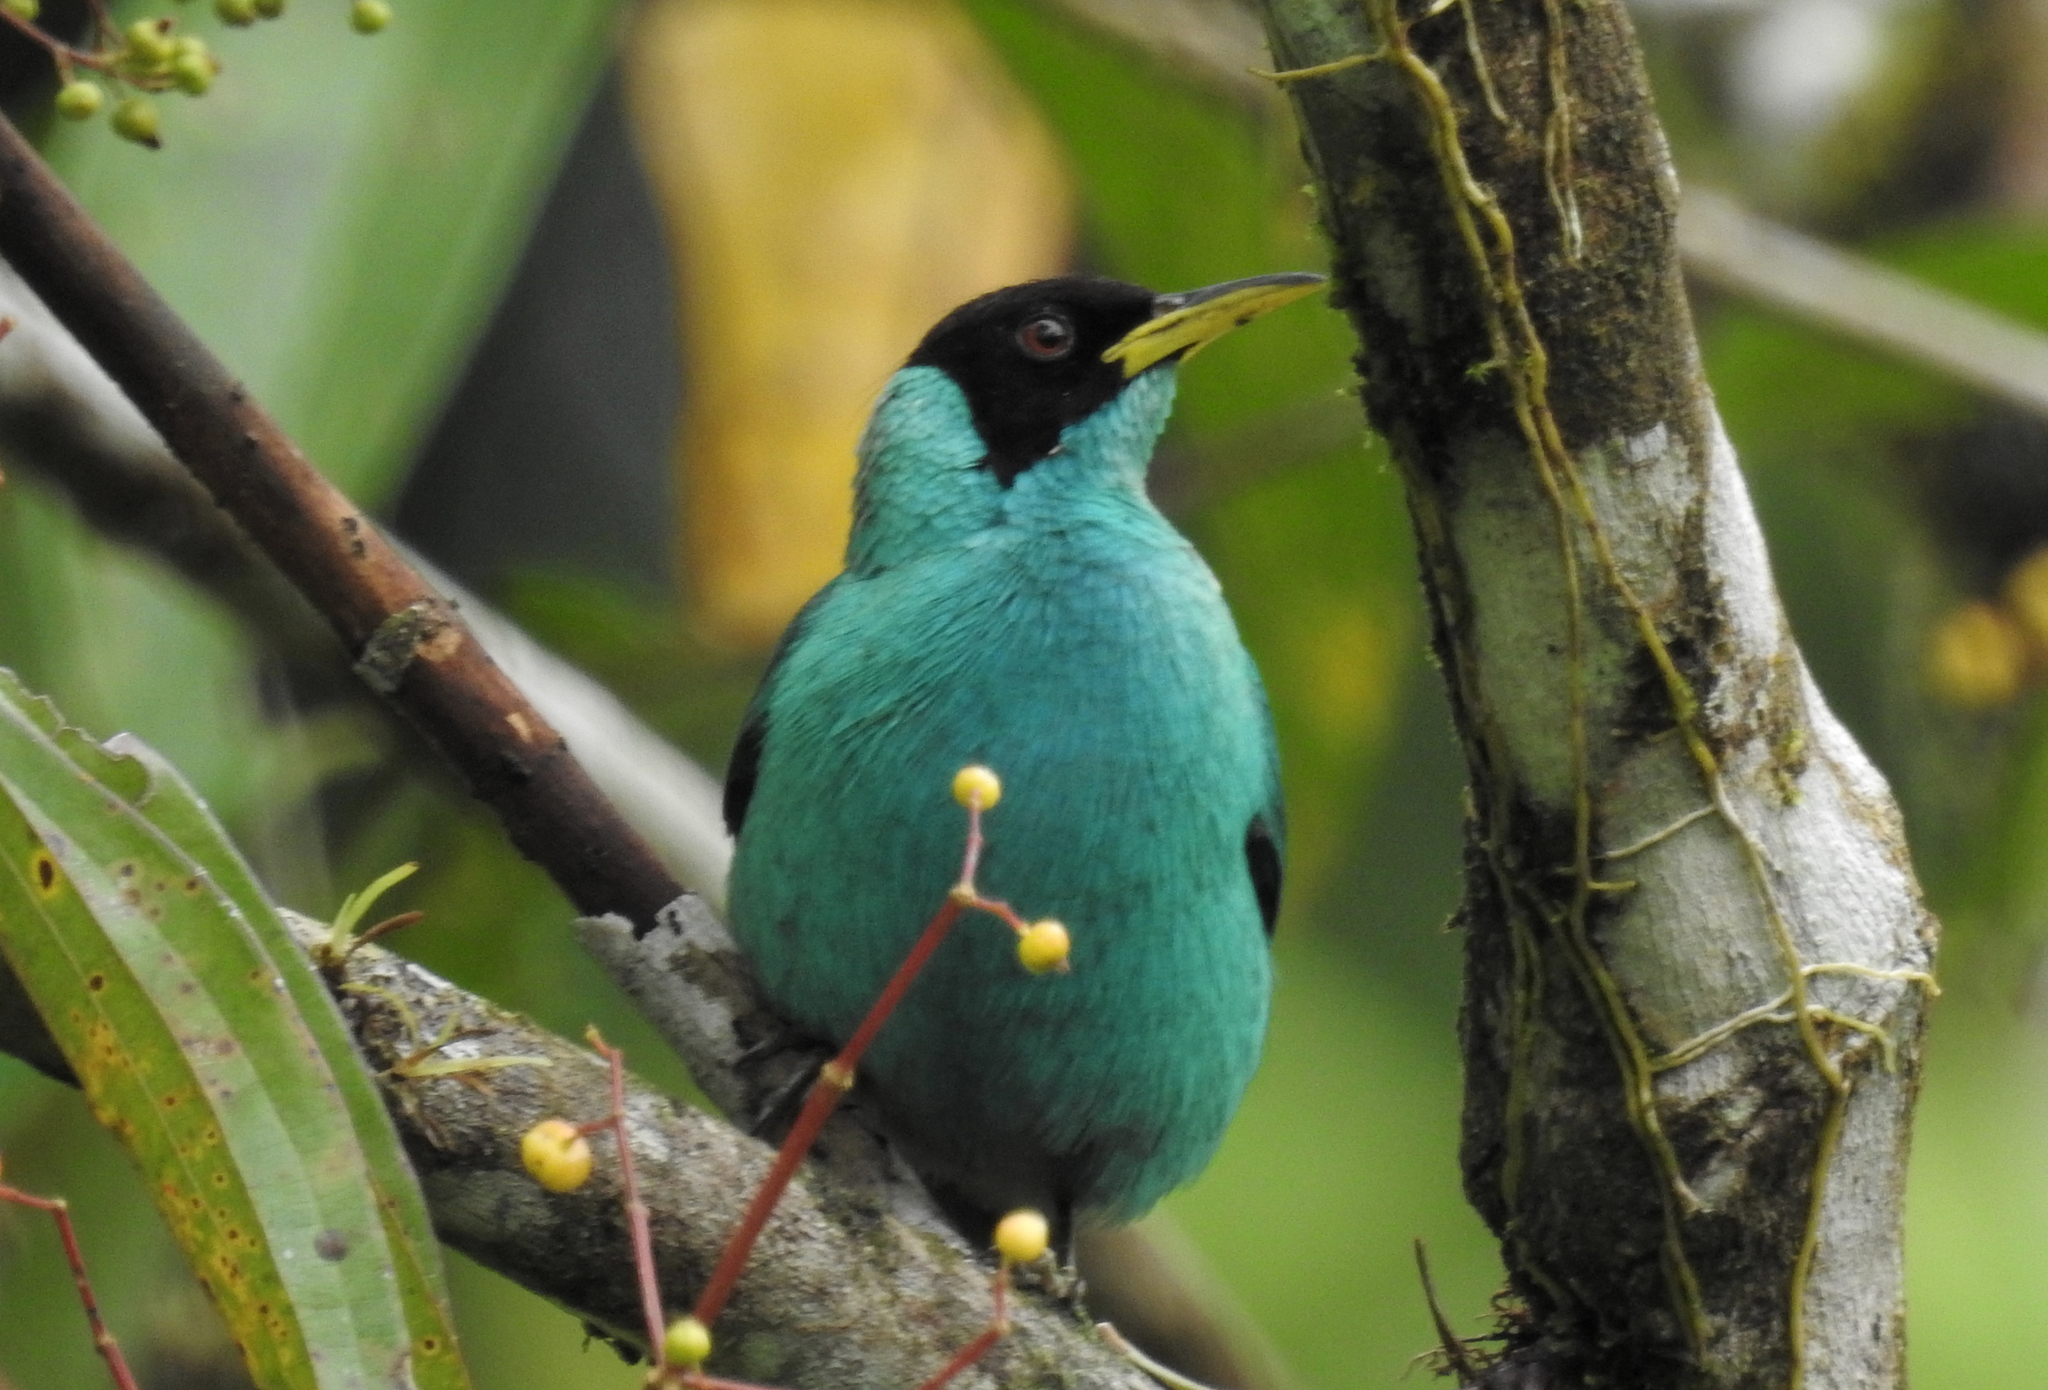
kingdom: Animalia
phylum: Chordata
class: Aves
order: Passeriformes
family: Thraupidae
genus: Chlorophanes
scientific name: Chlorophanes spiza
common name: Green honeycreeper
